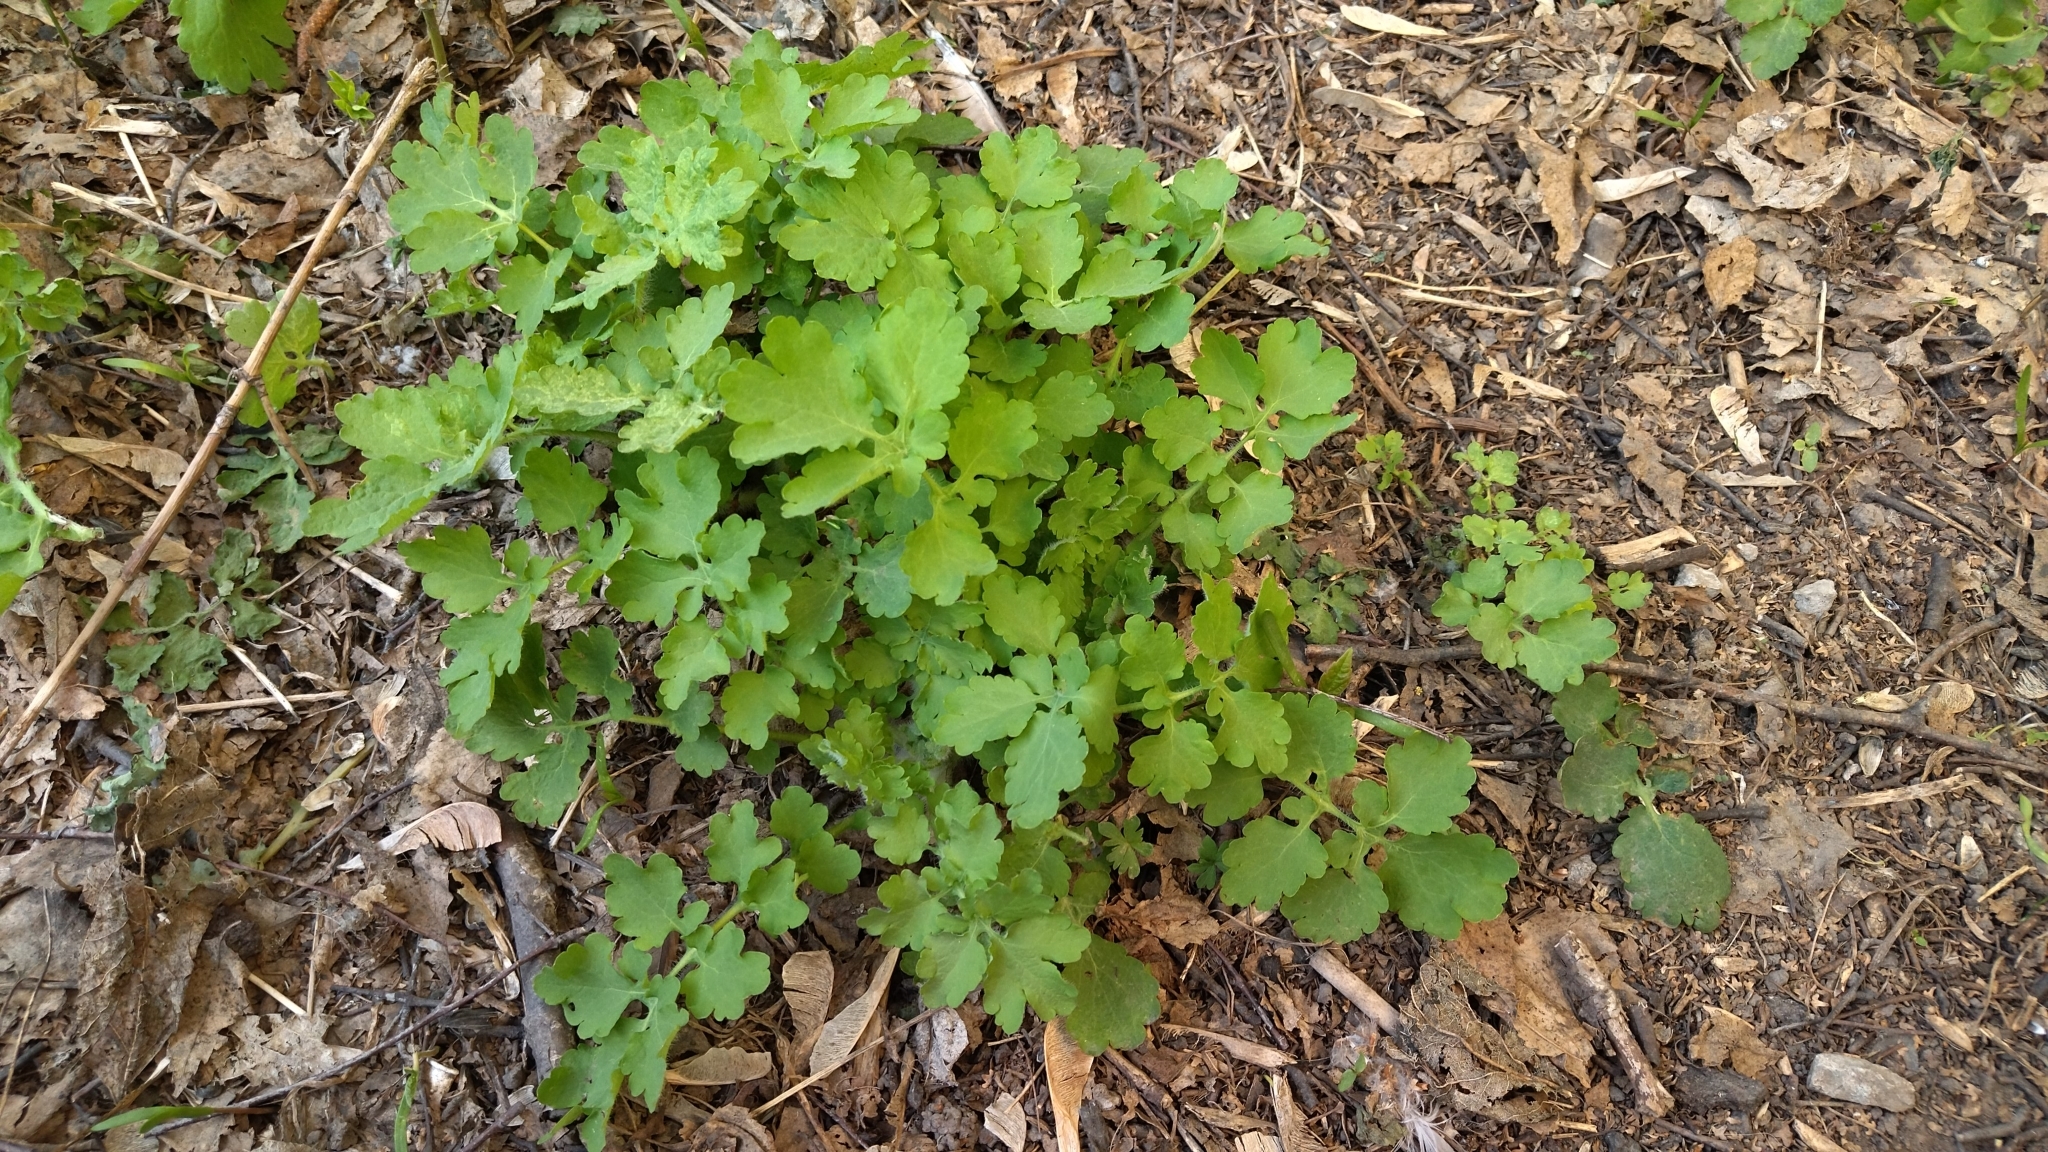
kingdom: Plantae
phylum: Tracheophyta
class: Magnoliopsida
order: Ranunculales
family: Papaveraceae
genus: Chelidonium
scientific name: Chelidonium majus
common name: Greater celandine
